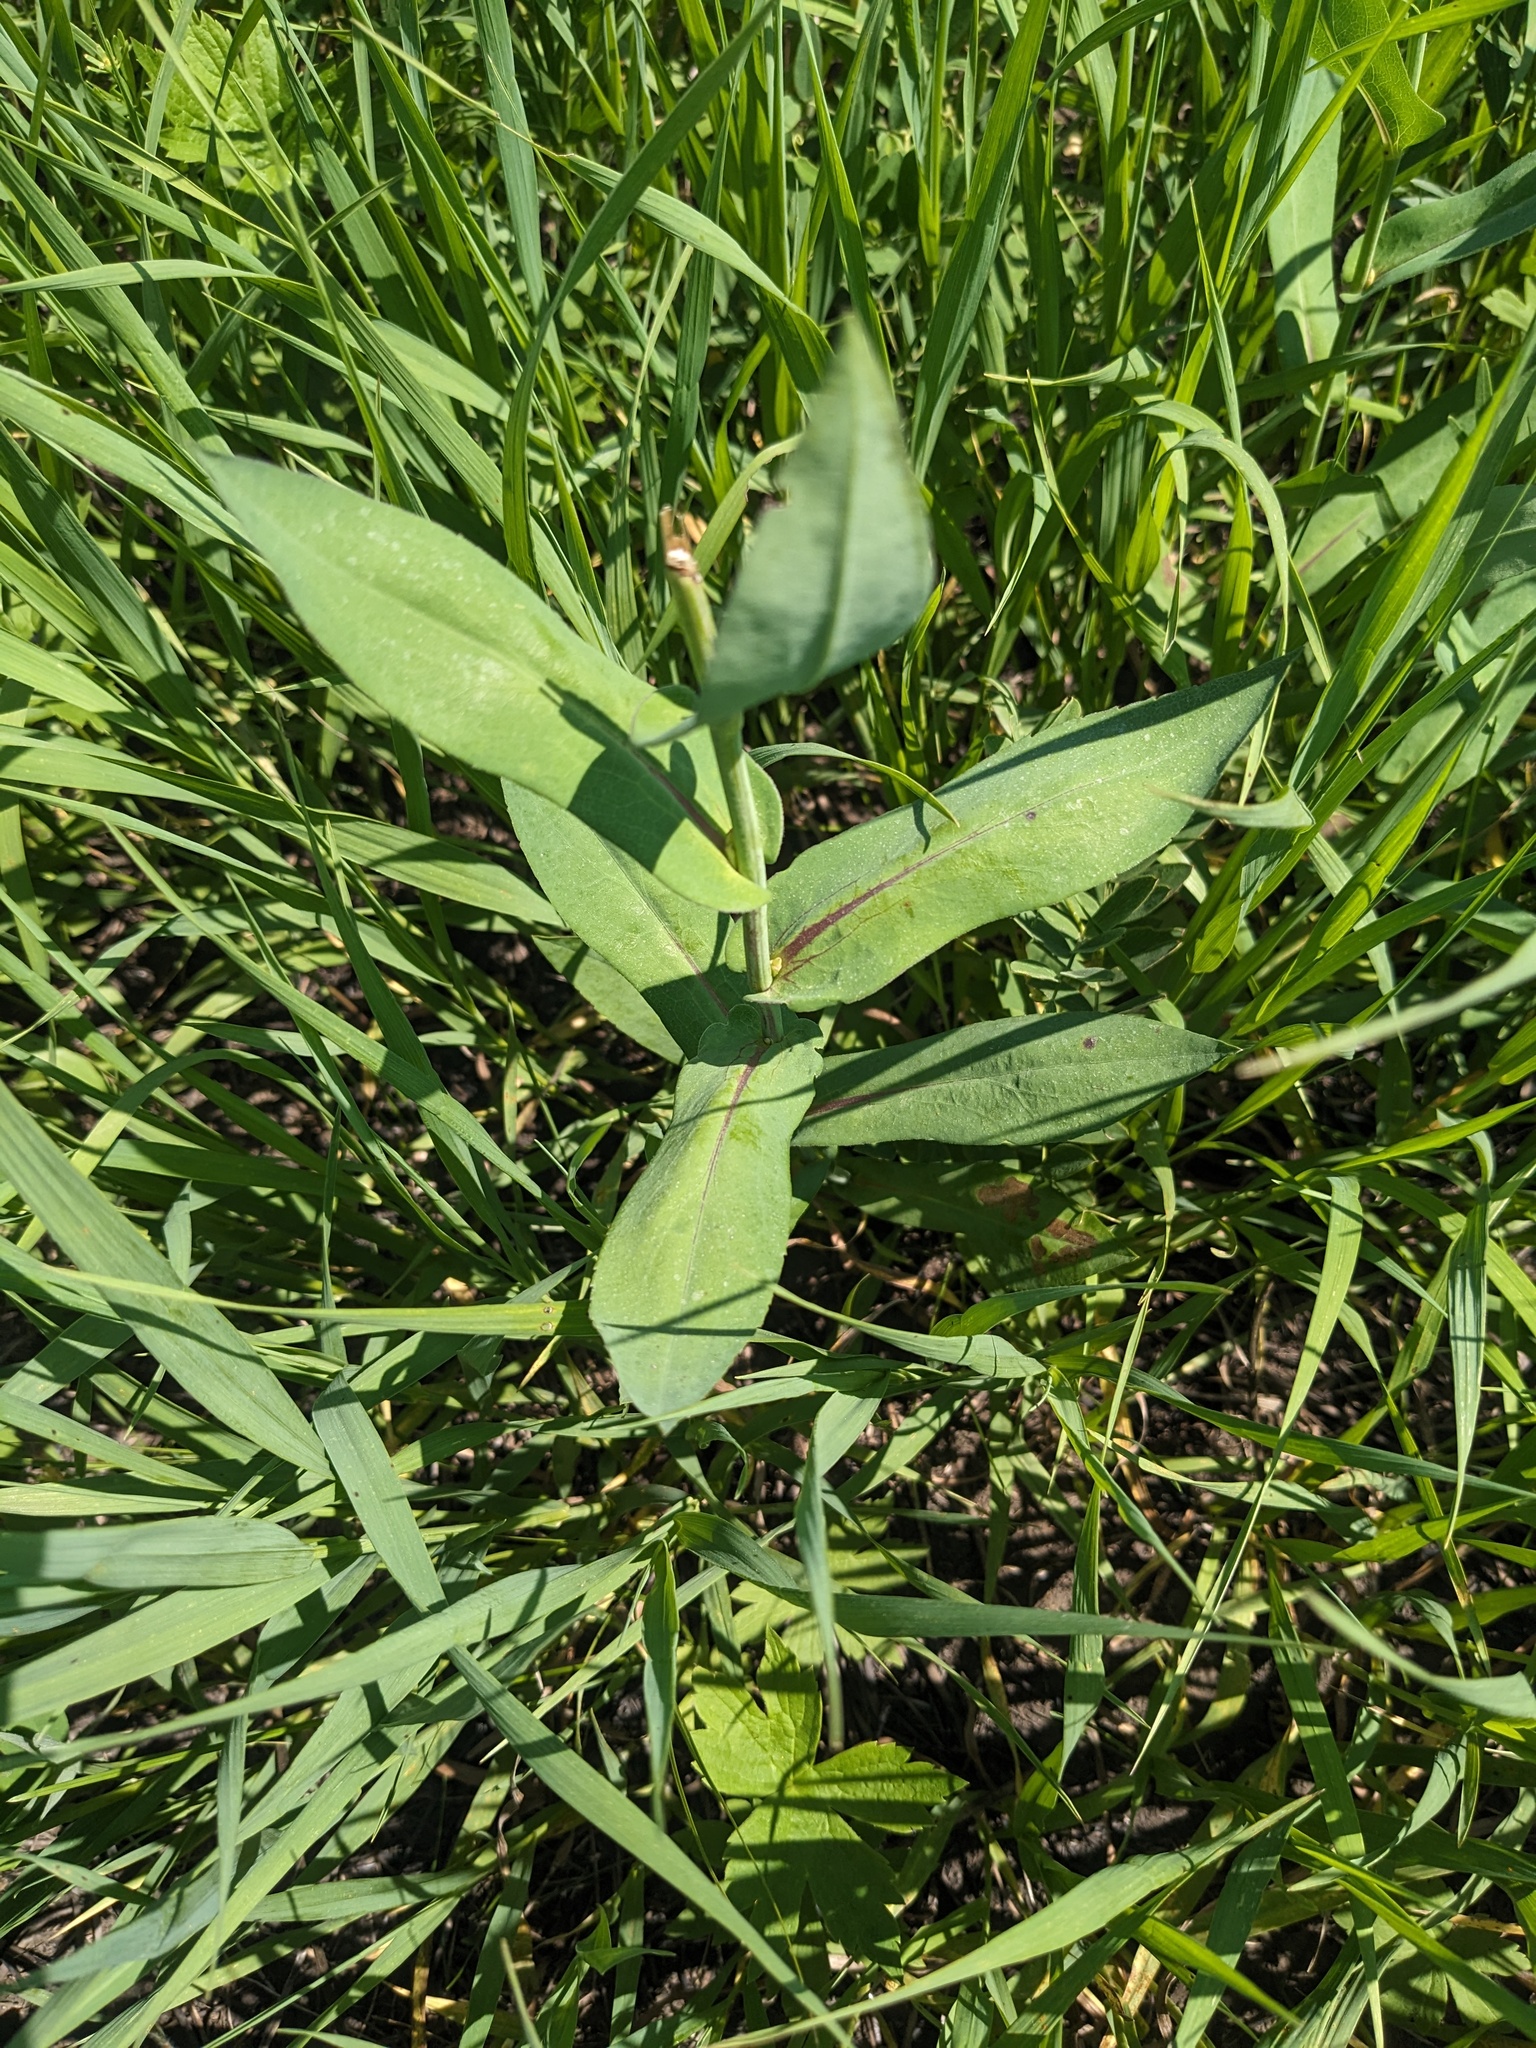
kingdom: Plantae
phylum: Tracheophyta
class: Magnoliopsida
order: Asterales
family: Asteraceae
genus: Symphyotrichum
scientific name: Symphyotrichum laeve
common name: Glaucous aster
